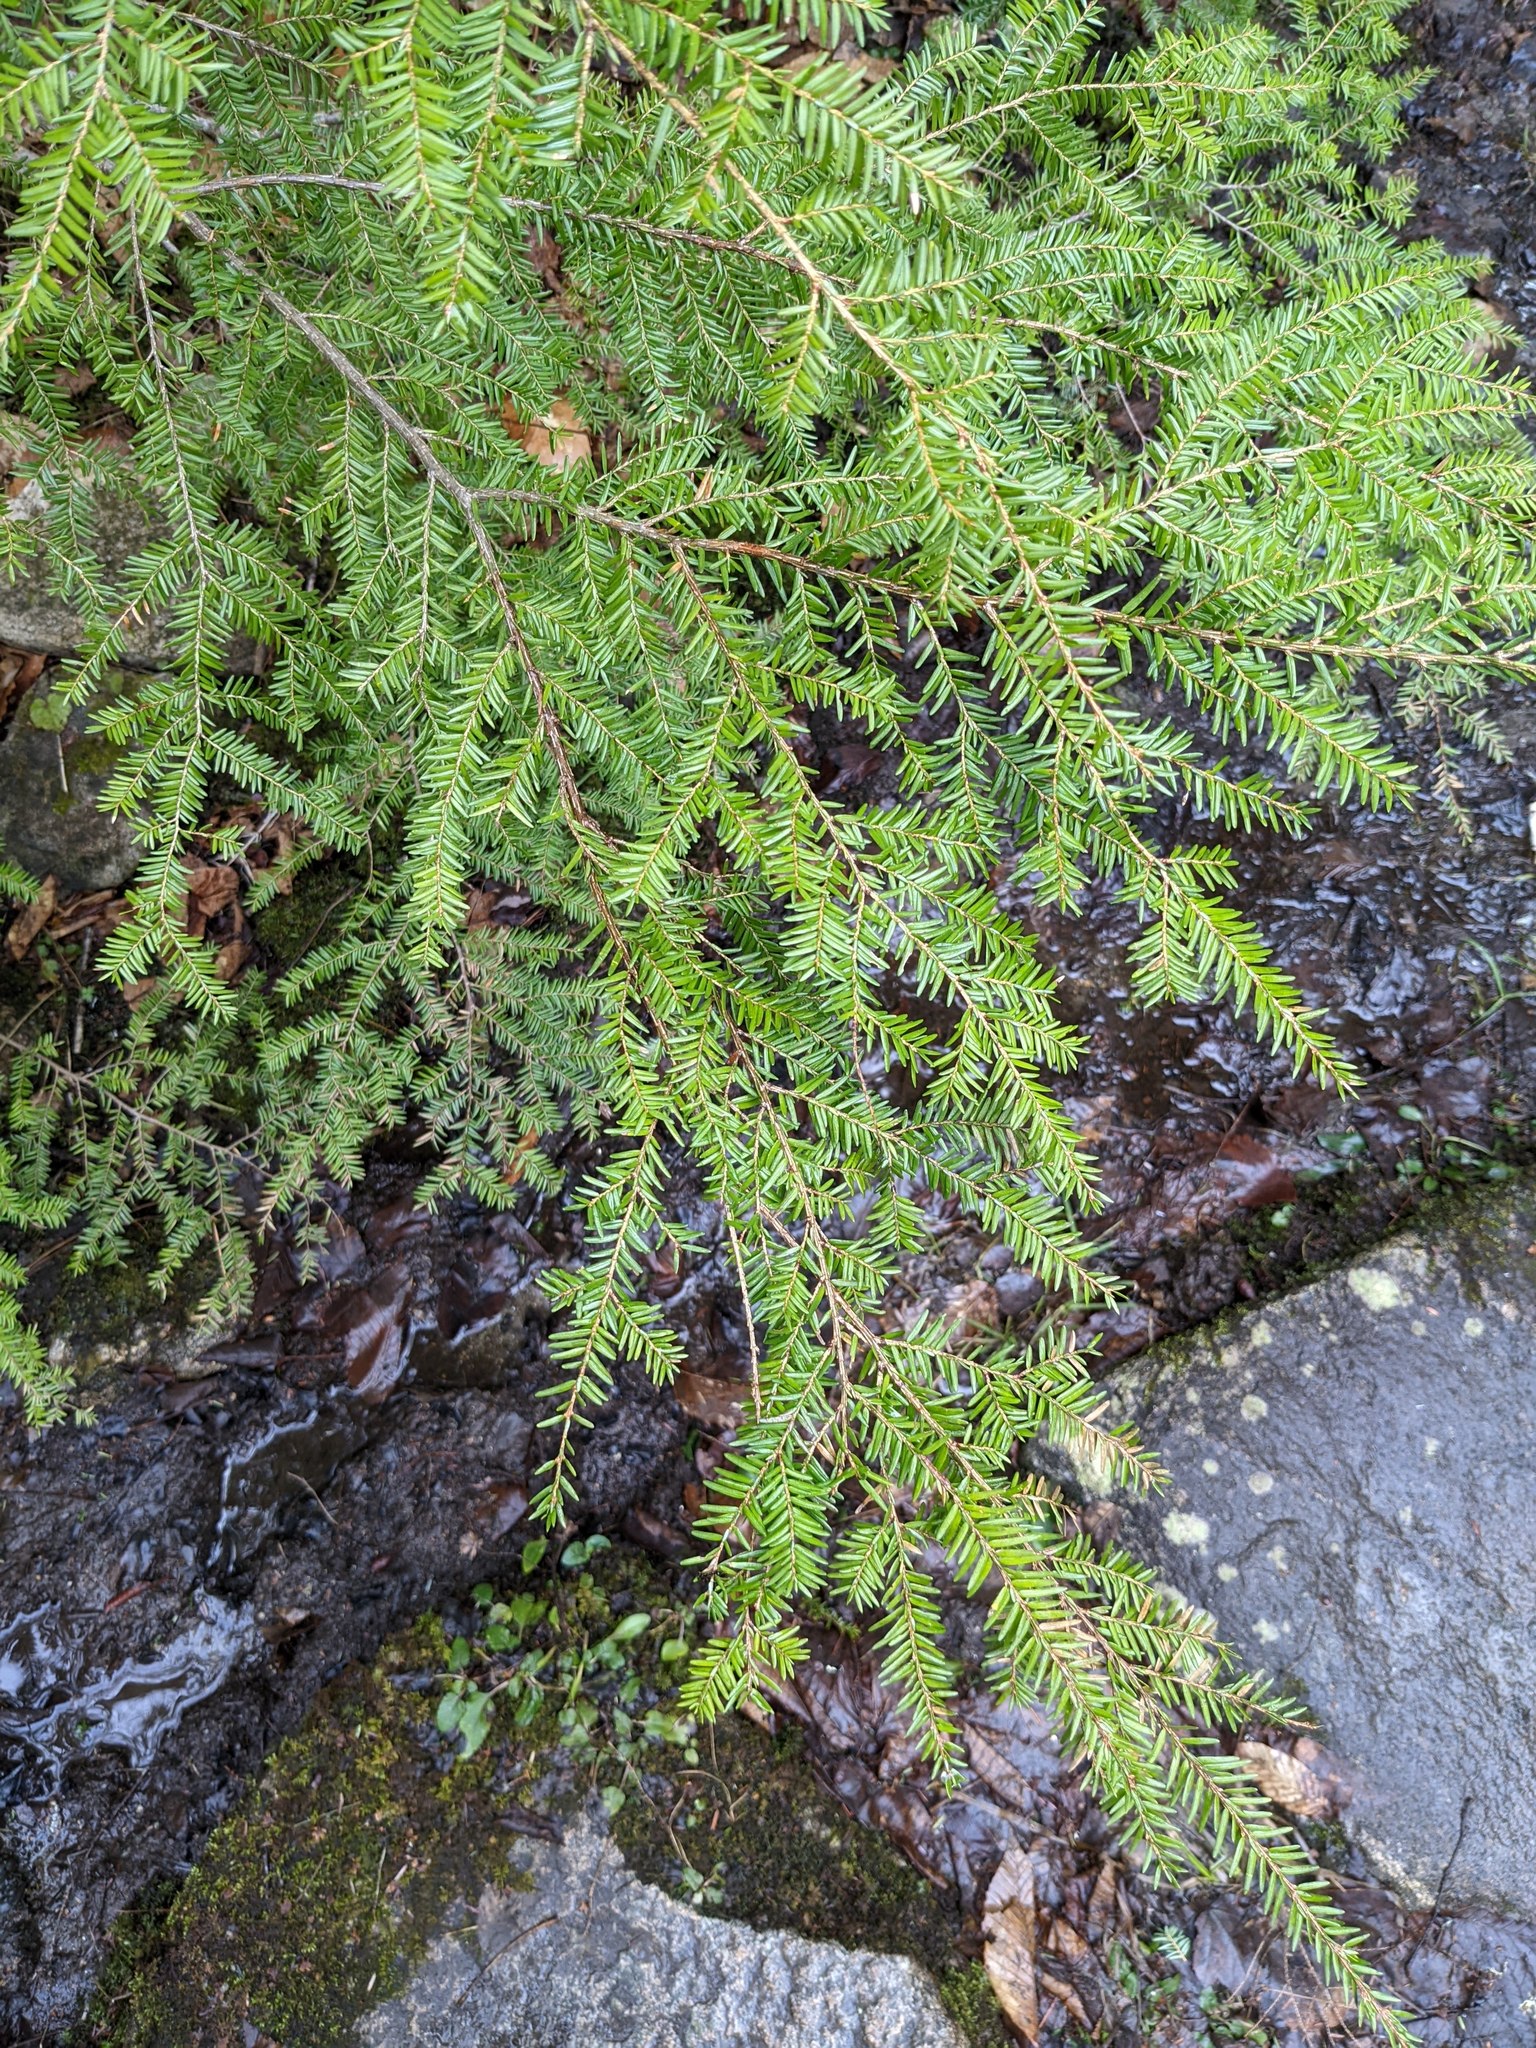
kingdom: Plantae
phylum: Tracheophyta
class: Pinopsida
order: Pinales
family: Pinaceae
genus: Tsuga
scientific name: Tsuga canadensis
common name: Eastern hemlock
